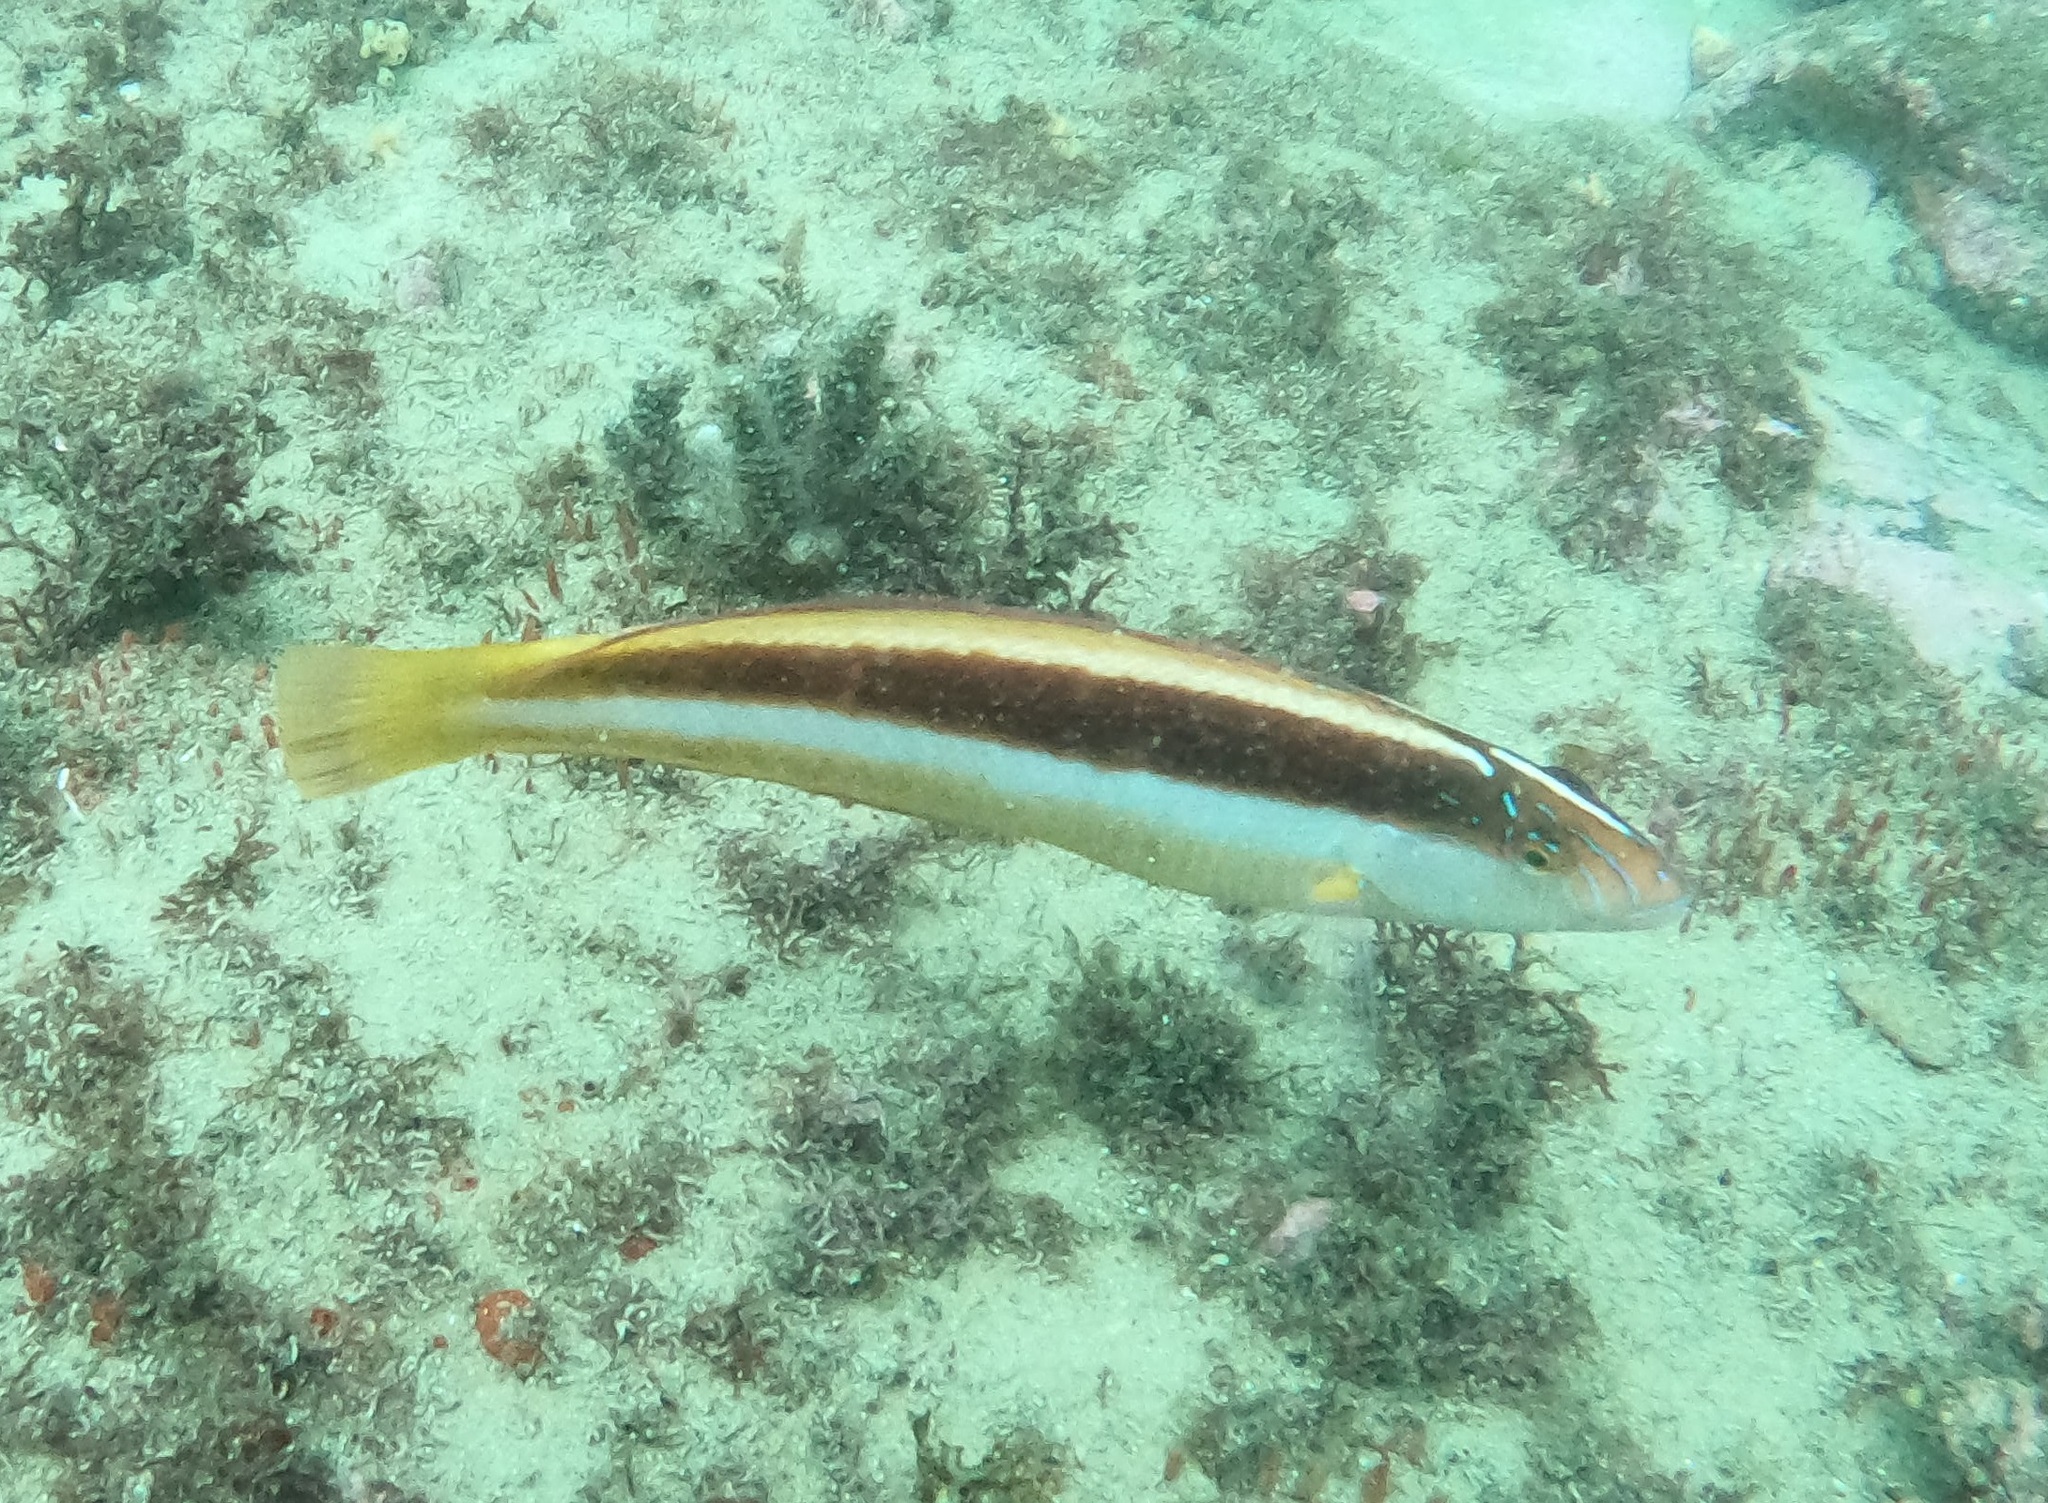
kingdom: Animalia
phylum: Chordata
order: Perciformes
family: Labridae
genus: Ophthalmolepis
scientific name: Ophthalmolepis lineolata
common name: Maori wrasse
